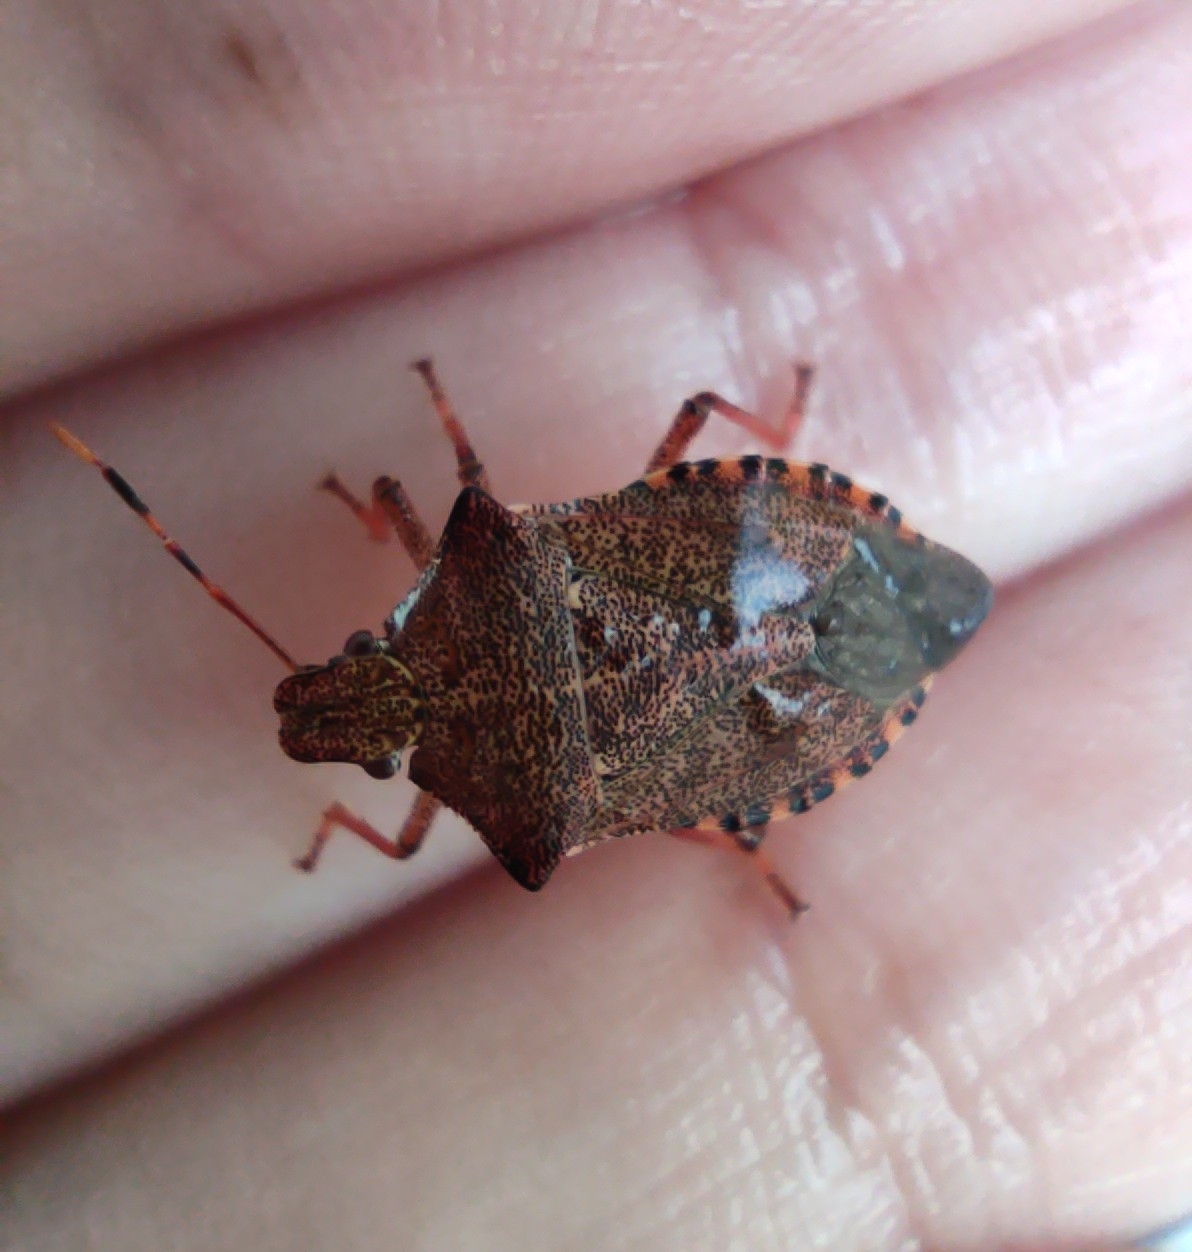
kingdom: Animalia
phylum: Arthropoda
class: Insecta
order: Hemiptera
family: Pentatomidae
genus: Arma
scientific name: Arma custos
